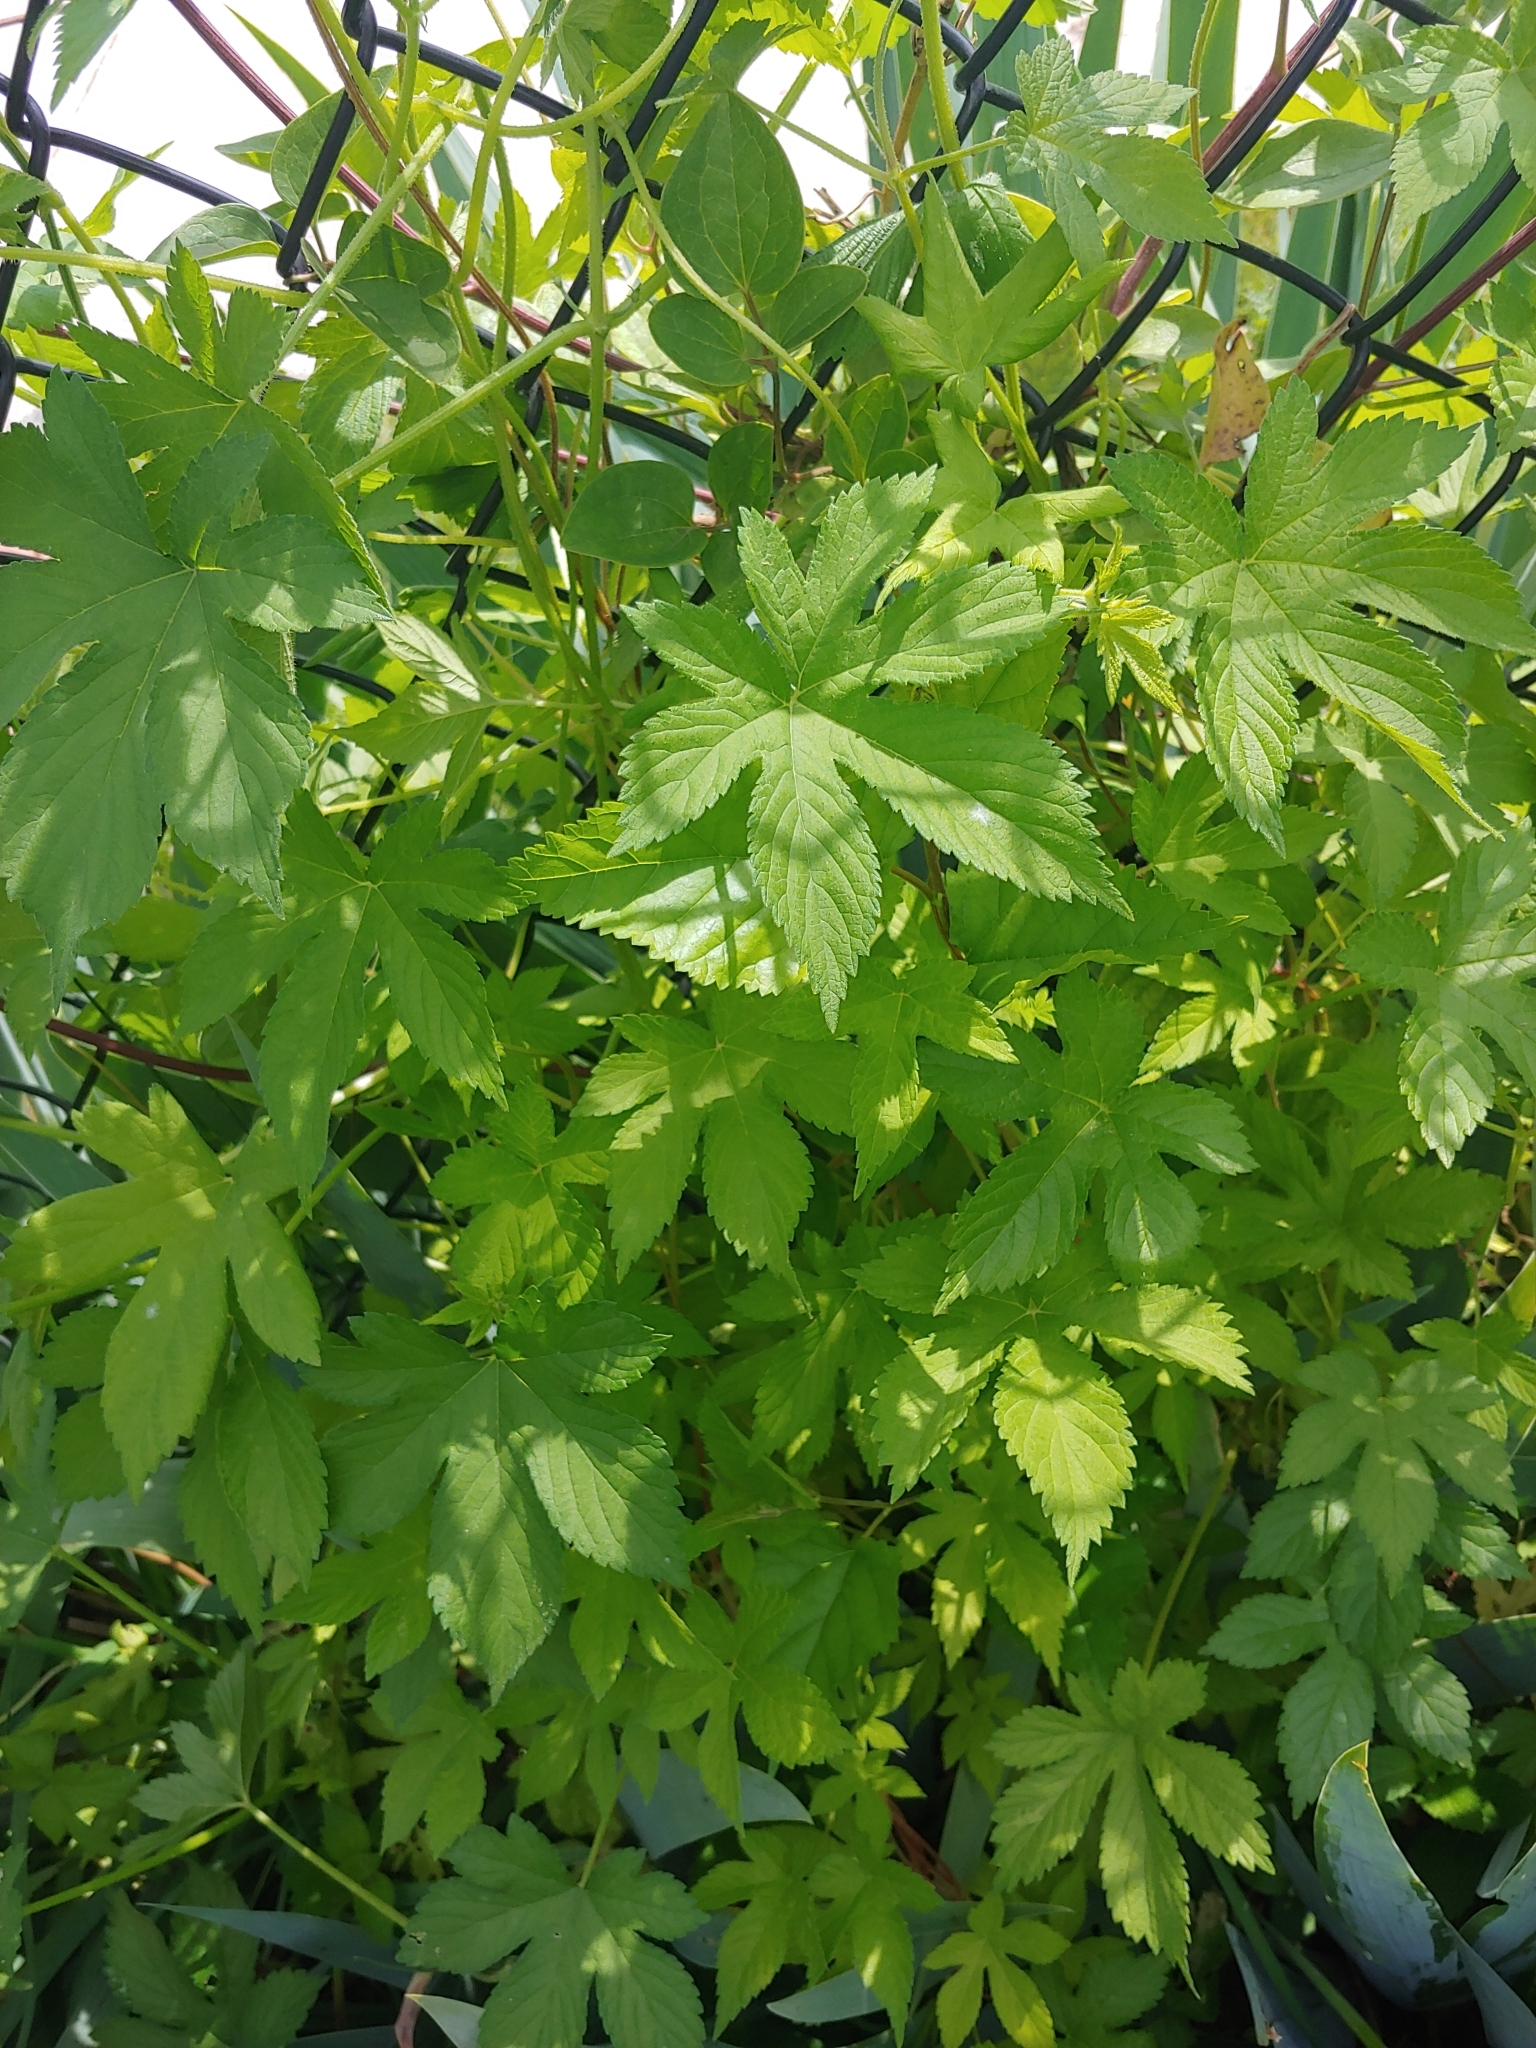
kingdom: Plantae
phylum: Tracheophyta
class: Magnoliopsida
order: Rosales
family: Cannabaceae
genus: Humulus
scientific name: Humulus scandens
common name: Japanese hop
